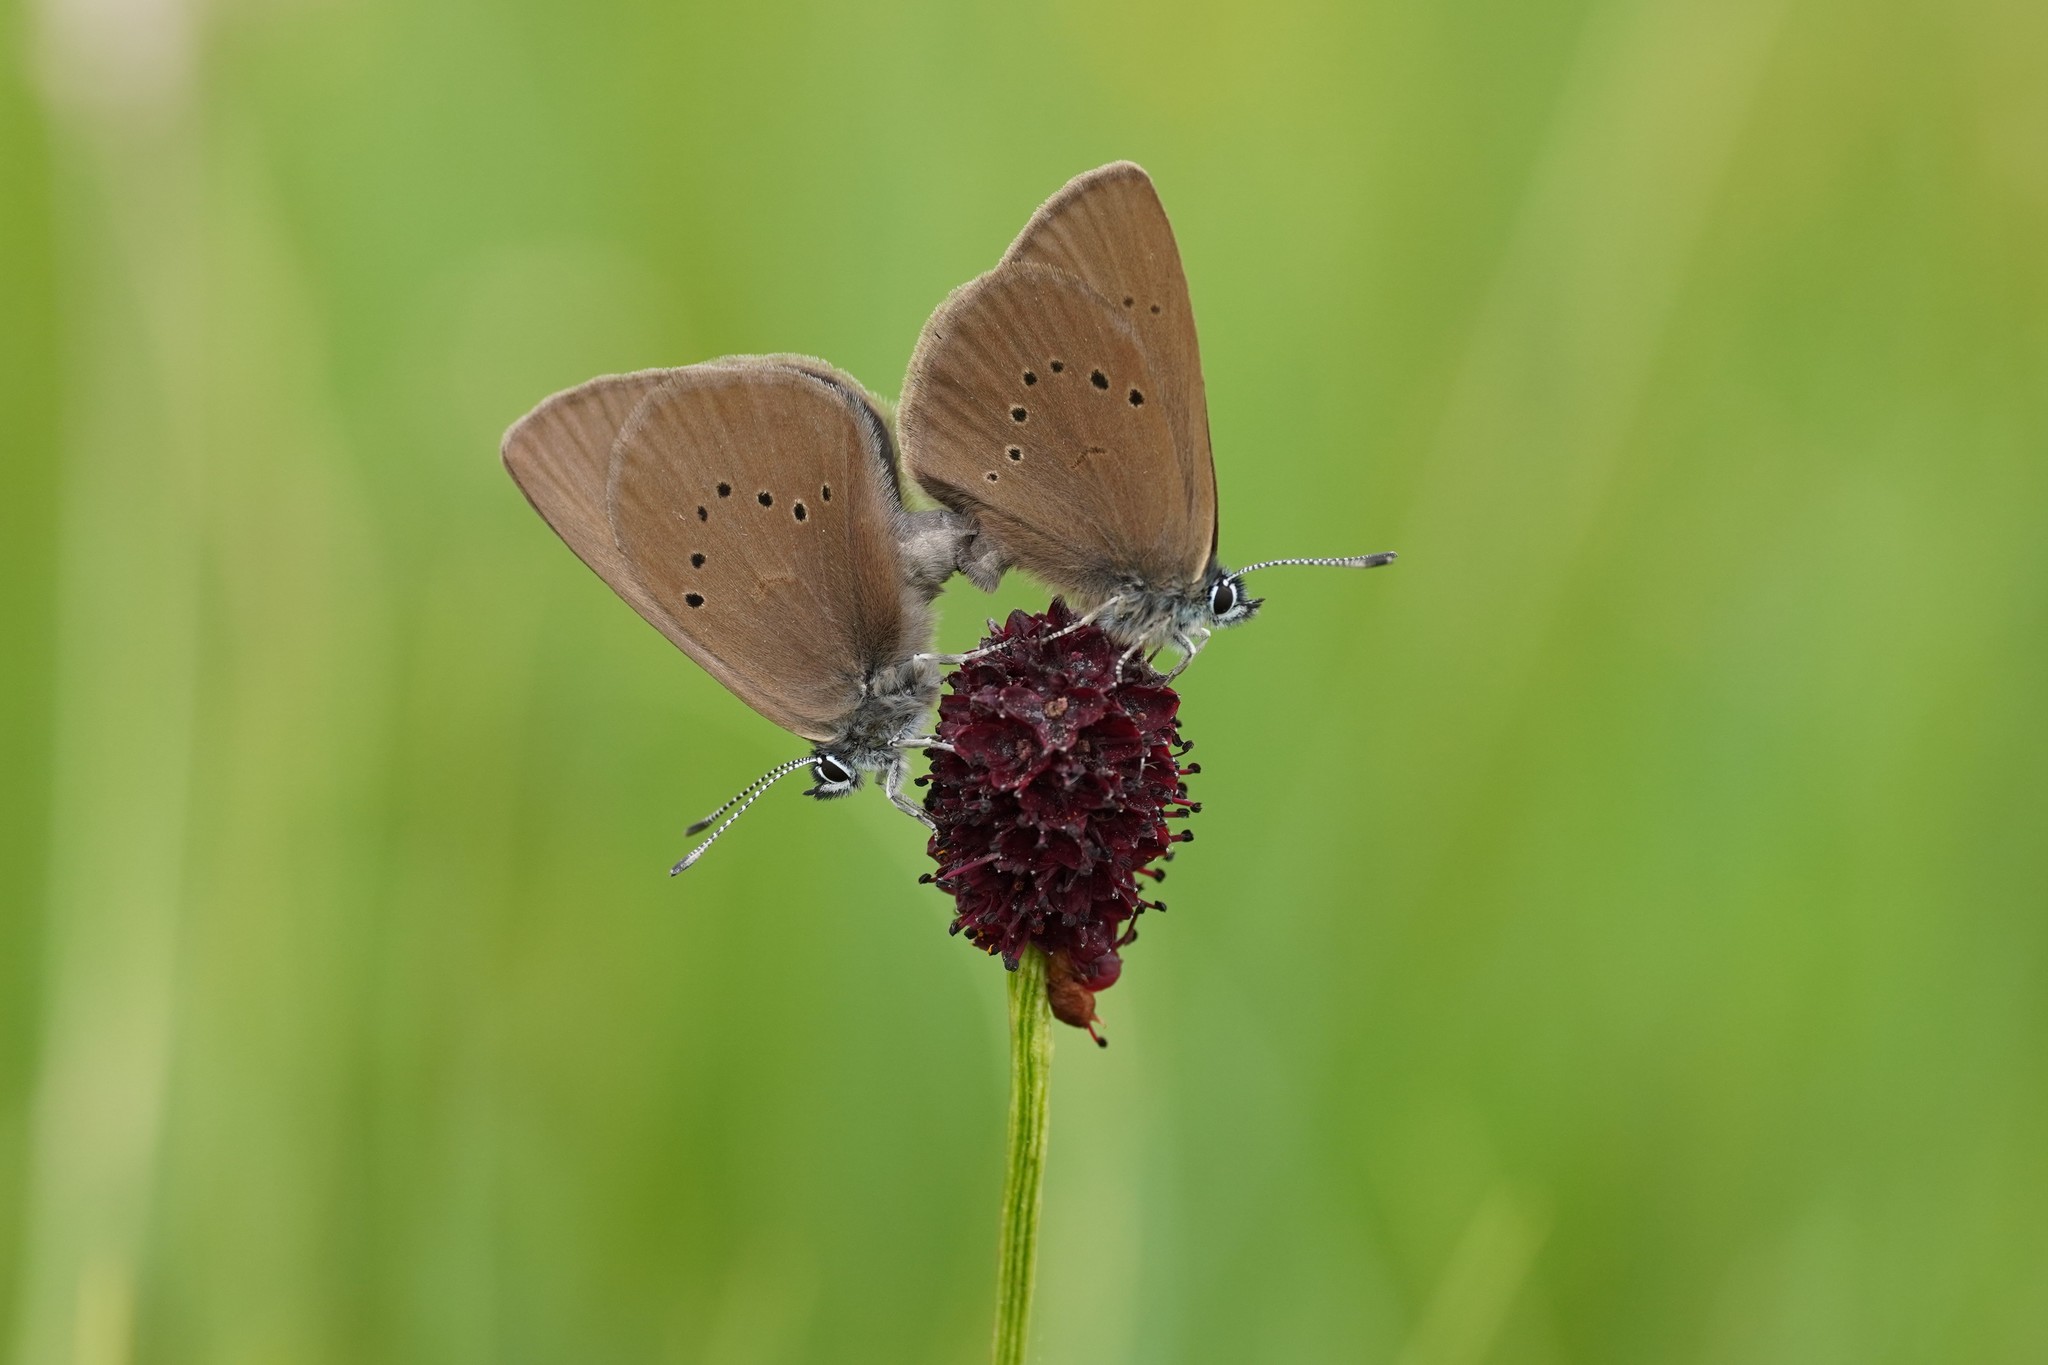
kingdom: Animalia
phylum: Arthropoda
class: Insecta
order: Lepidoptera
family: Lycaenidae
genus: Maculinea
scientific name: Maculinea nausithous
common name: Dusky large blue
